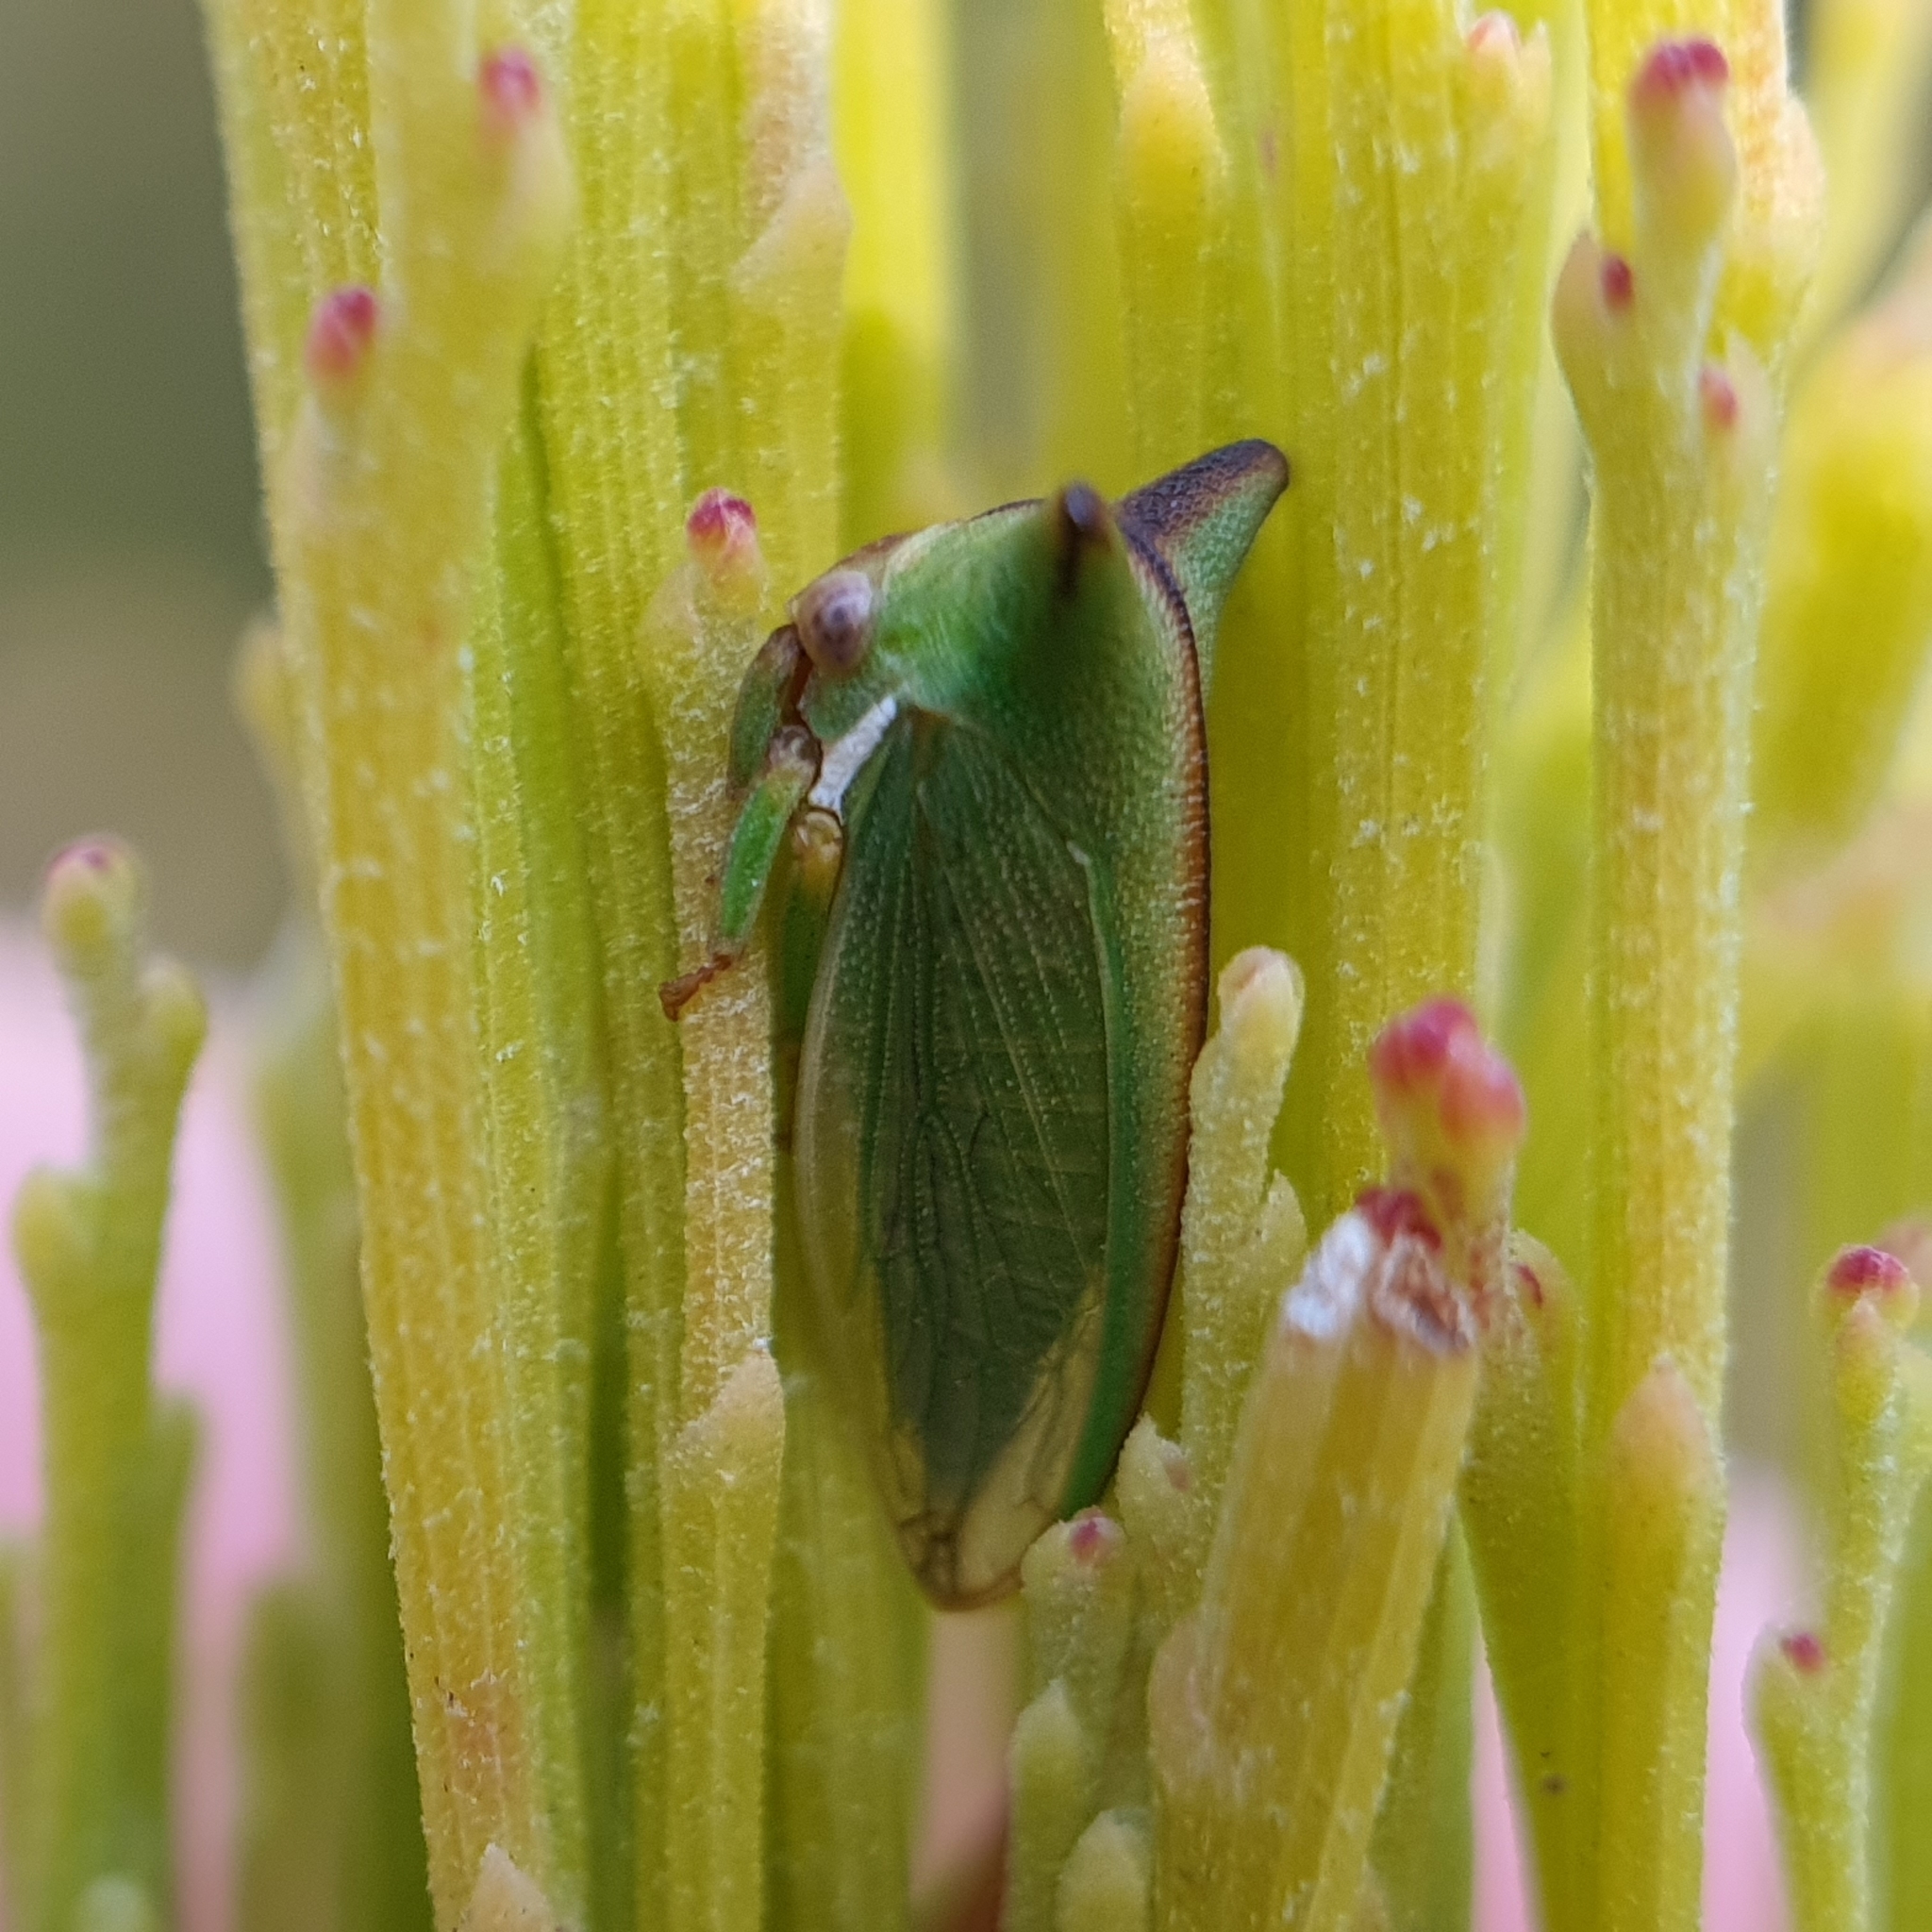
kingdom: Animalia
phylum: Arthropoda
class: Insecta
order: Hemiptera
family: Membracidae
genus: Sextius
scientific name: Sextius virescens
